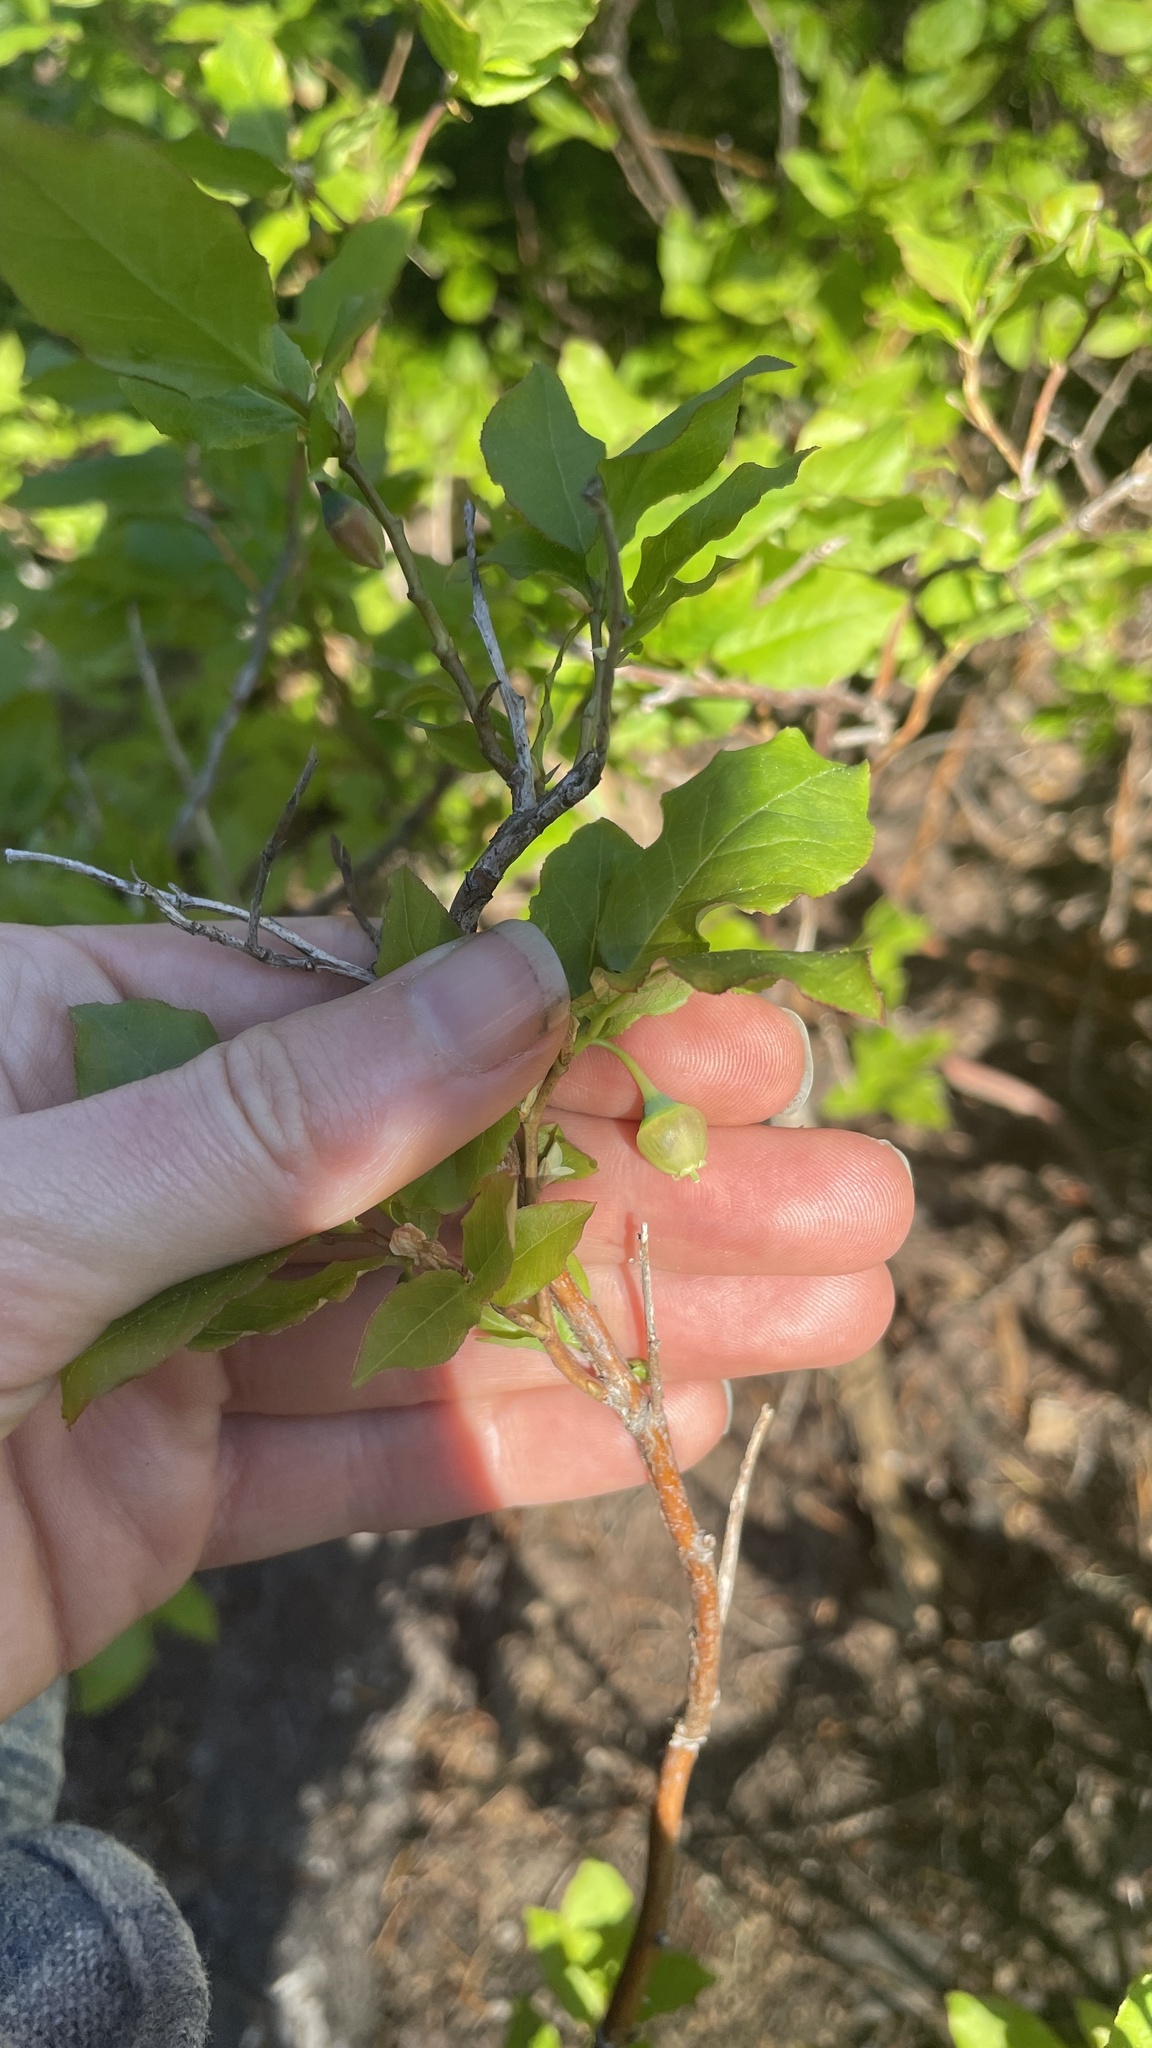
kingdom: Plantae
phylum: Tracheophyta
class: Magnoliopsida
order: Ericales
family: Ericaceae
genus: Vaccinium
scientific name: Vaccinium membranaceum
